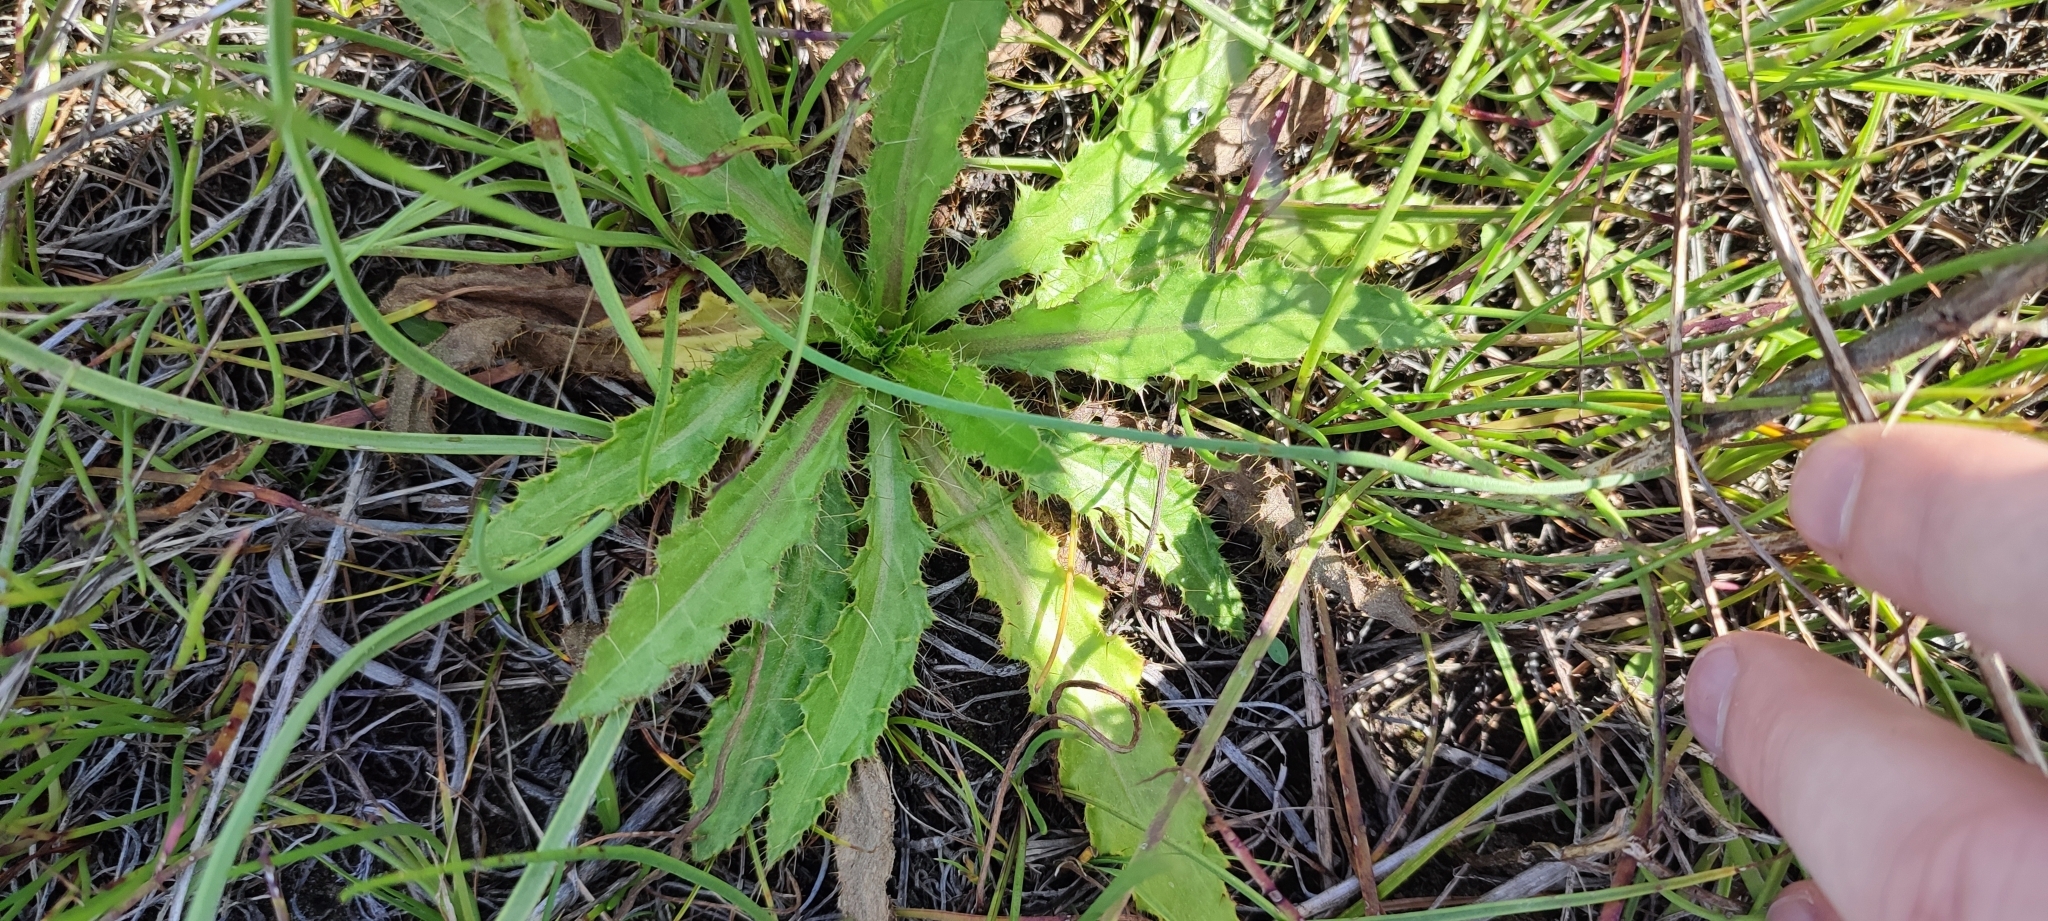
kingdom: Plantae
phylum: Tracheophyta
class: Magnoliopsida
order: Asterales
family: Asteraceae
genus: Cirsium
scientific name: Cirsium esculentum
